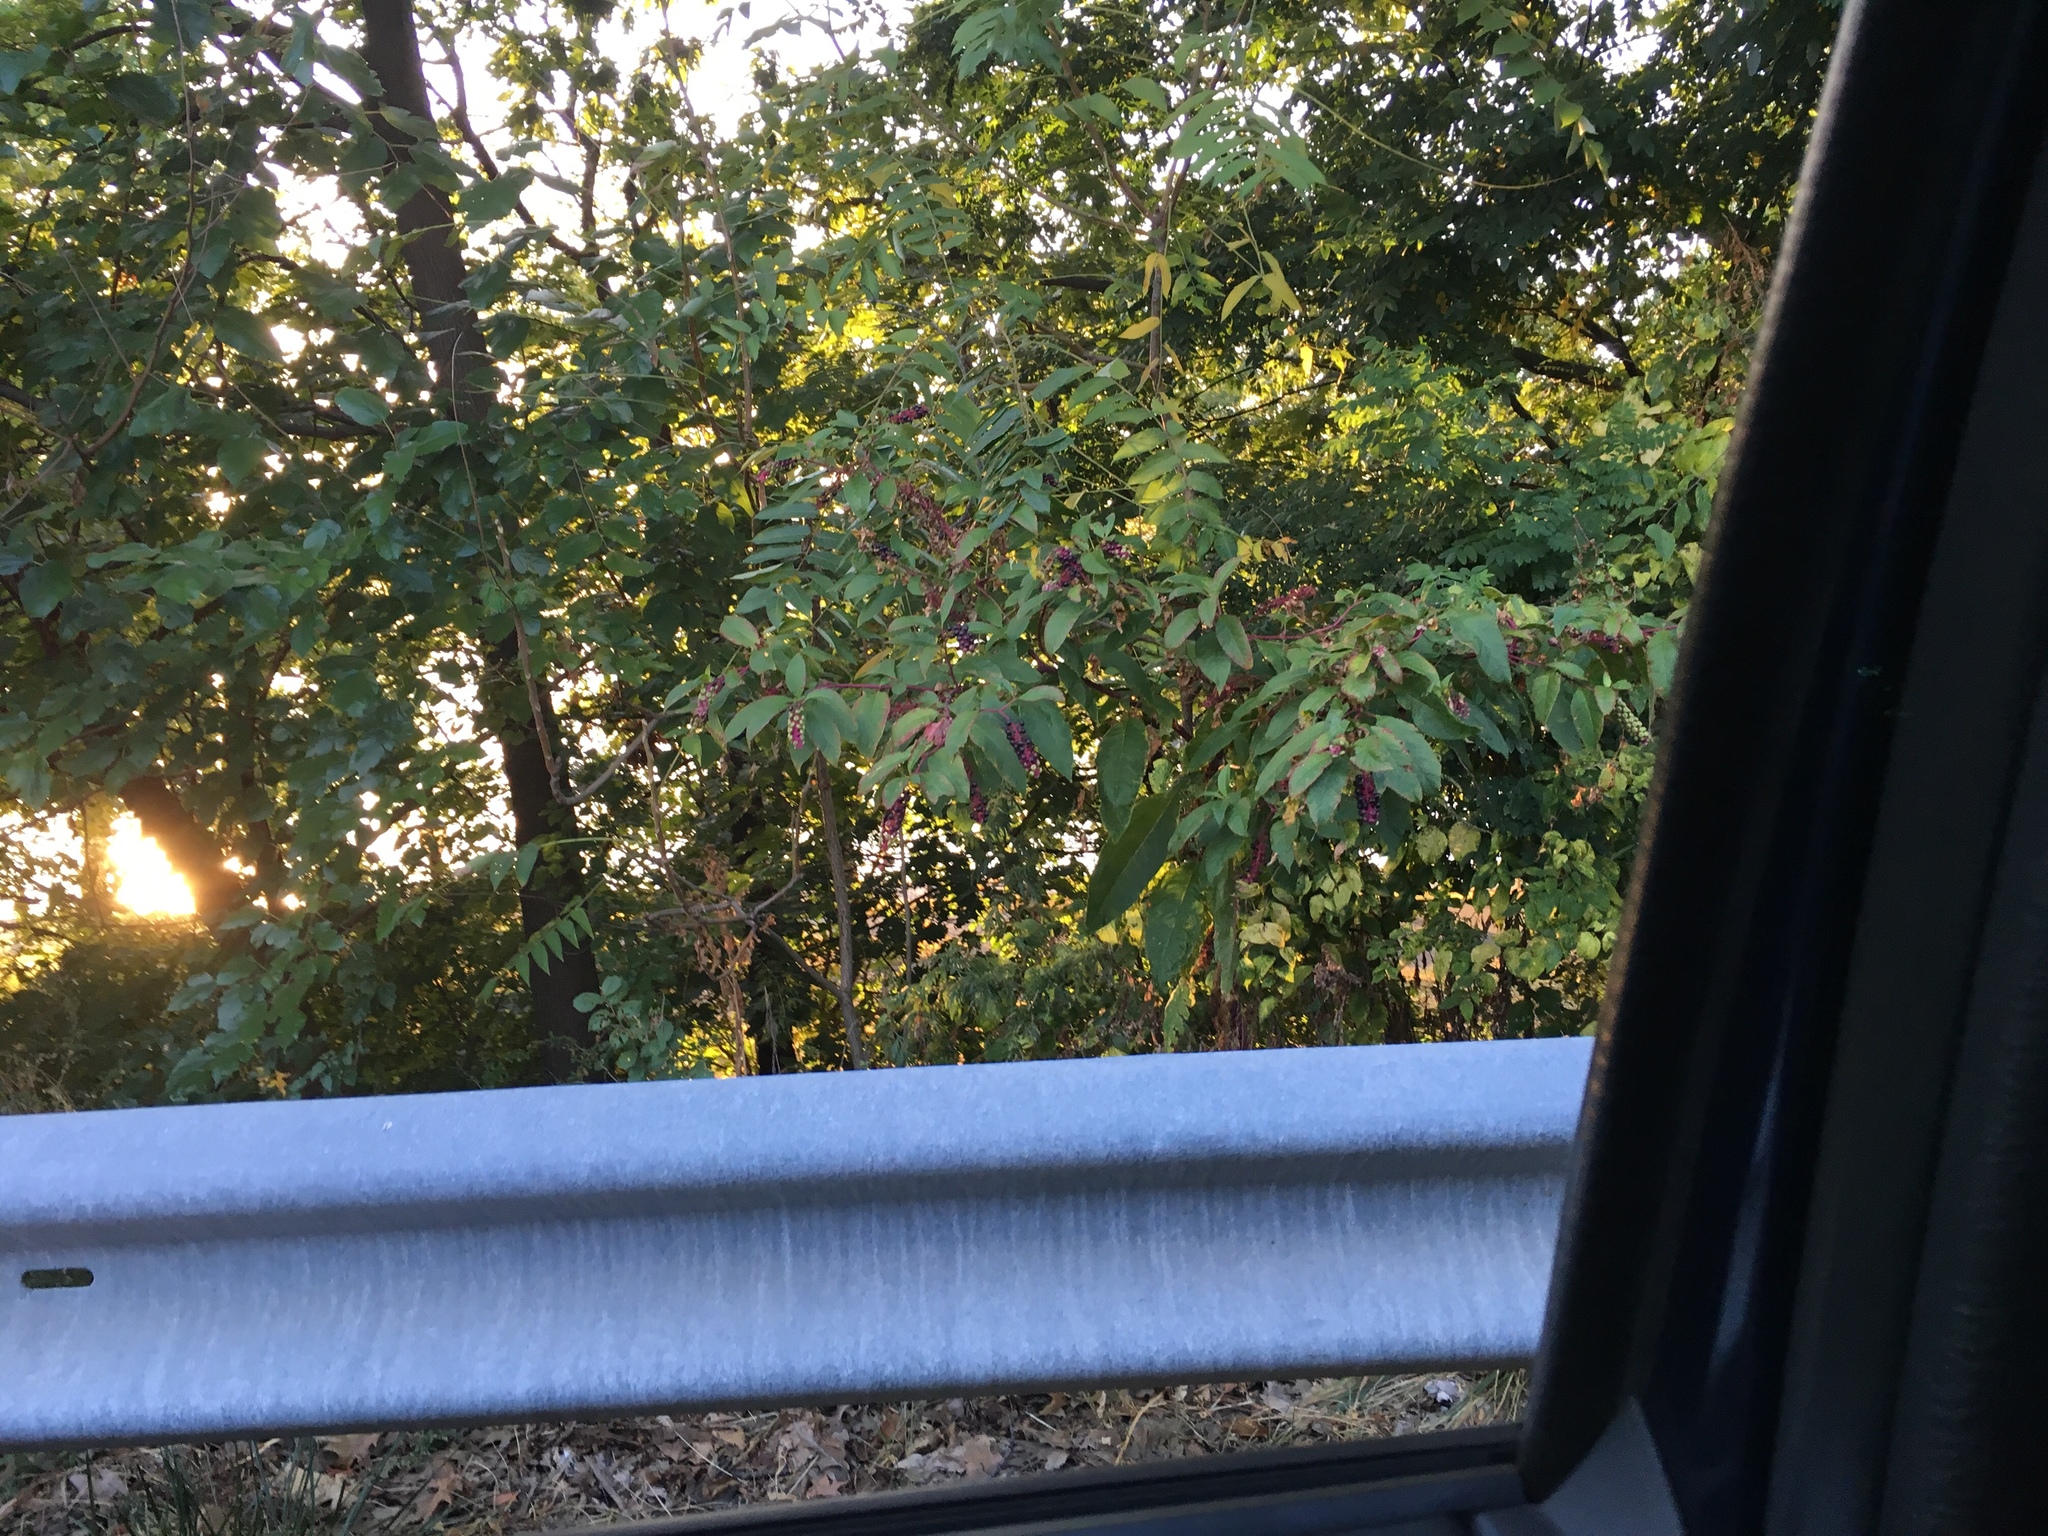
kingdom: Plantae
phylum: Tracheophyta
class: Magnoliopsida
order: Caryophyllales
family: Phytolaccaceae
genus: Phytolacca
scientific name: Phytolacca americana
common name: American pokeweed
